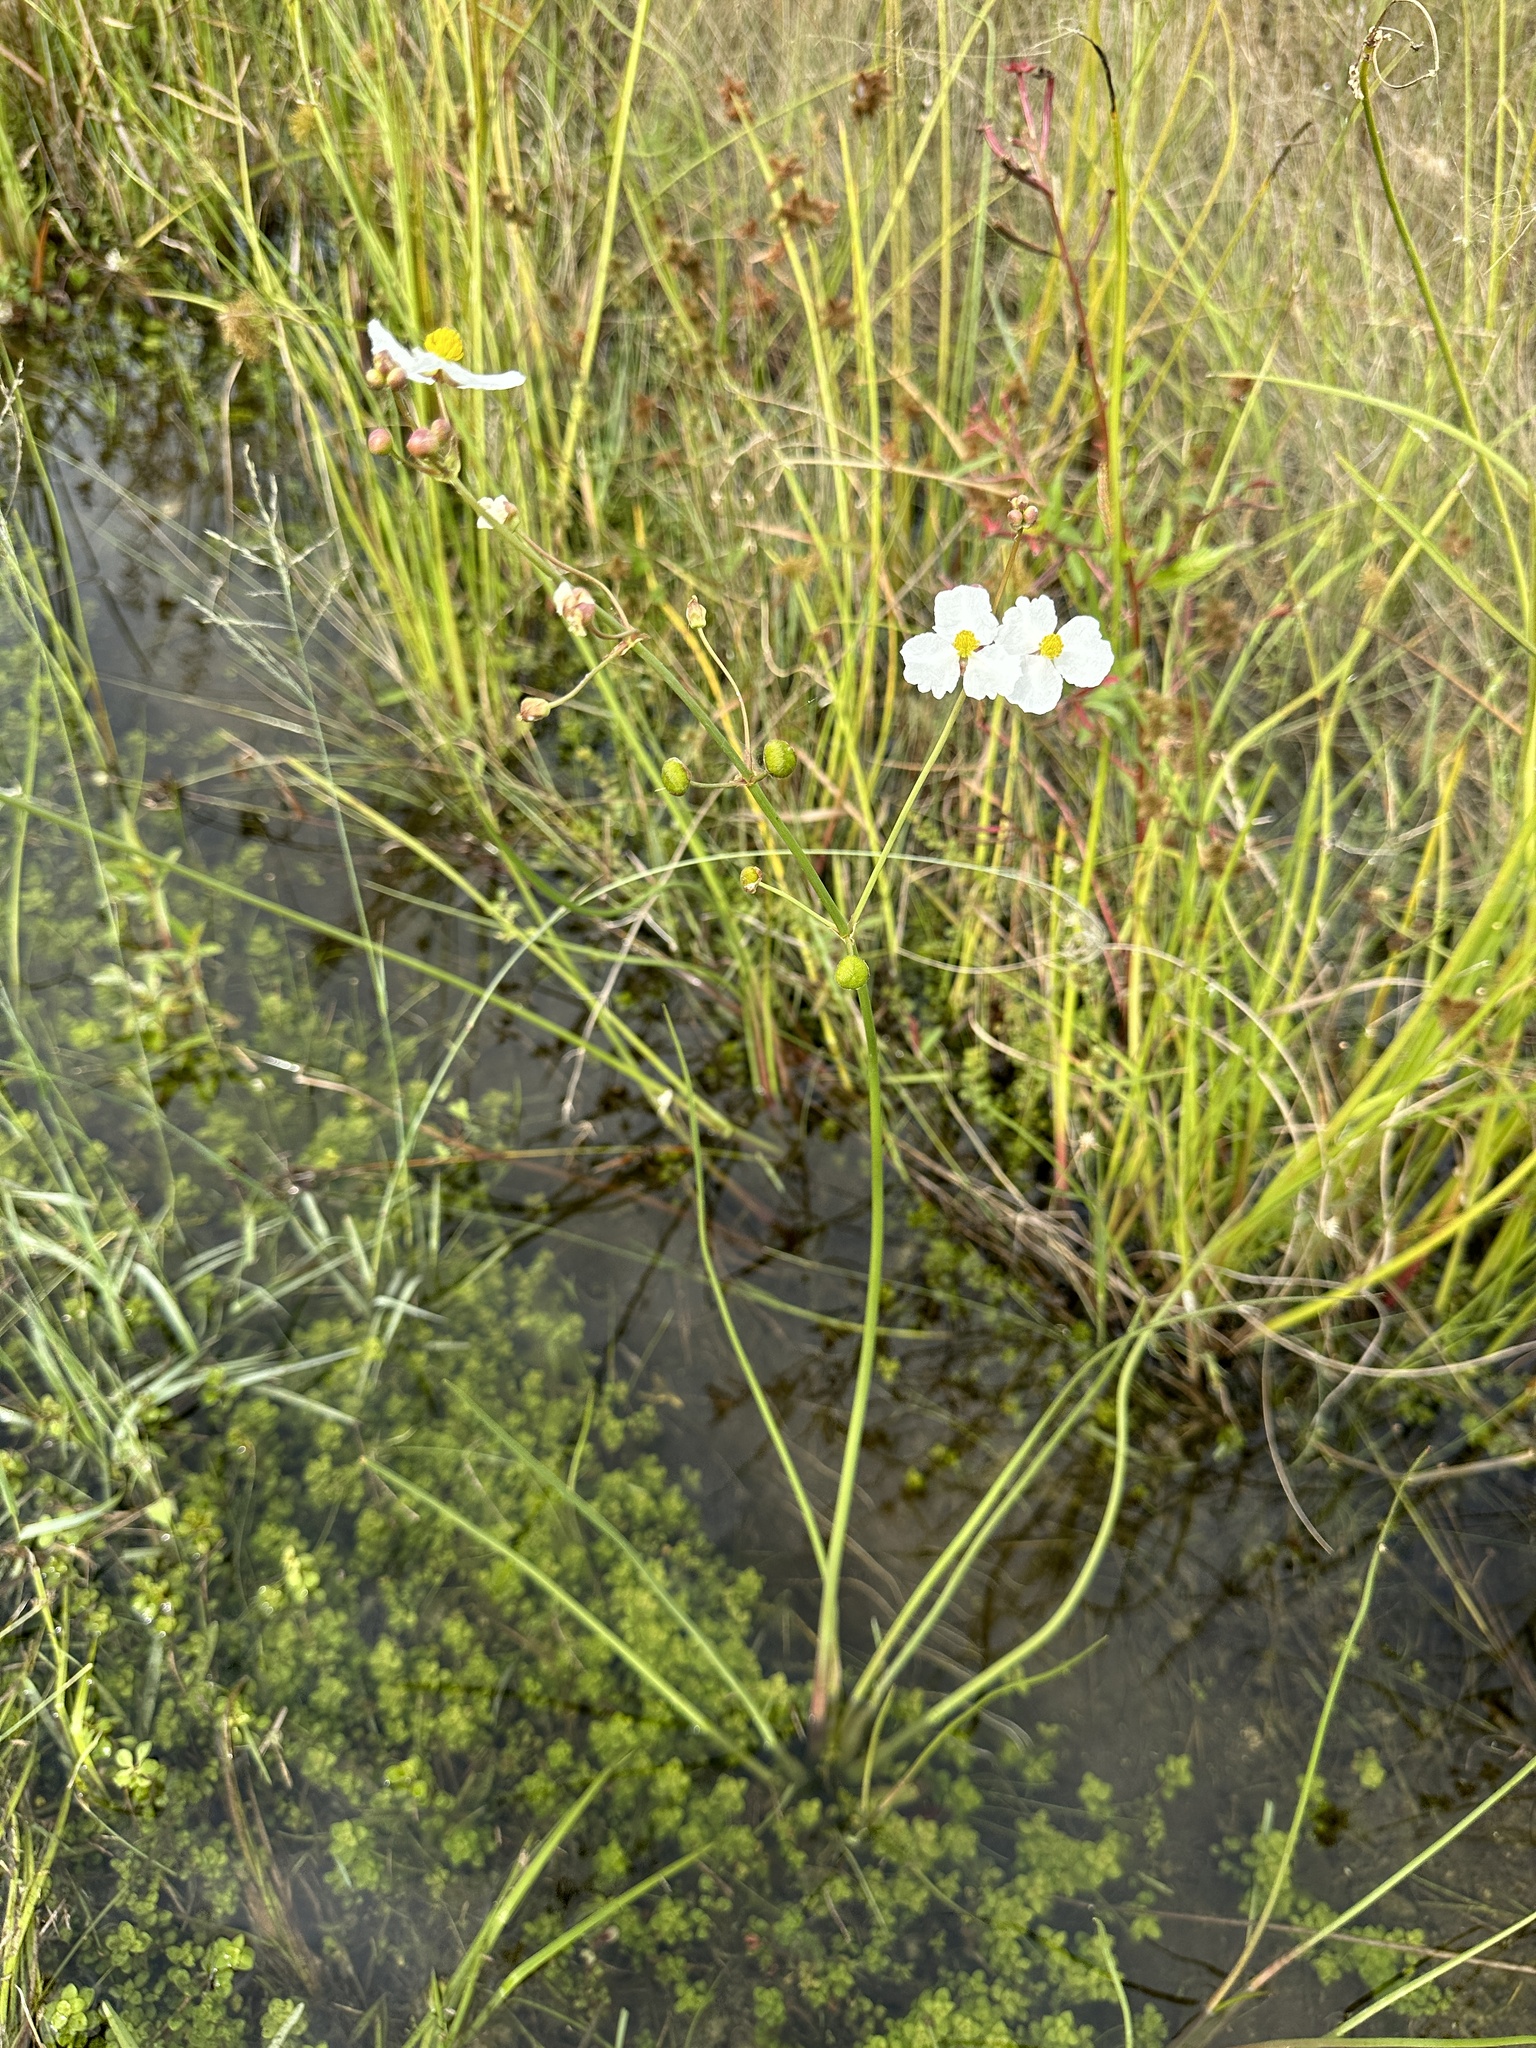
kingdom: Plantae
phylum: Tracheophyta
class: Liliopsida
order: Alismatales
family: Alismataceae
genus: Sagittaria
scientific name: Sagittaria lancifolia
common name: Lance-leaf arrowhead
